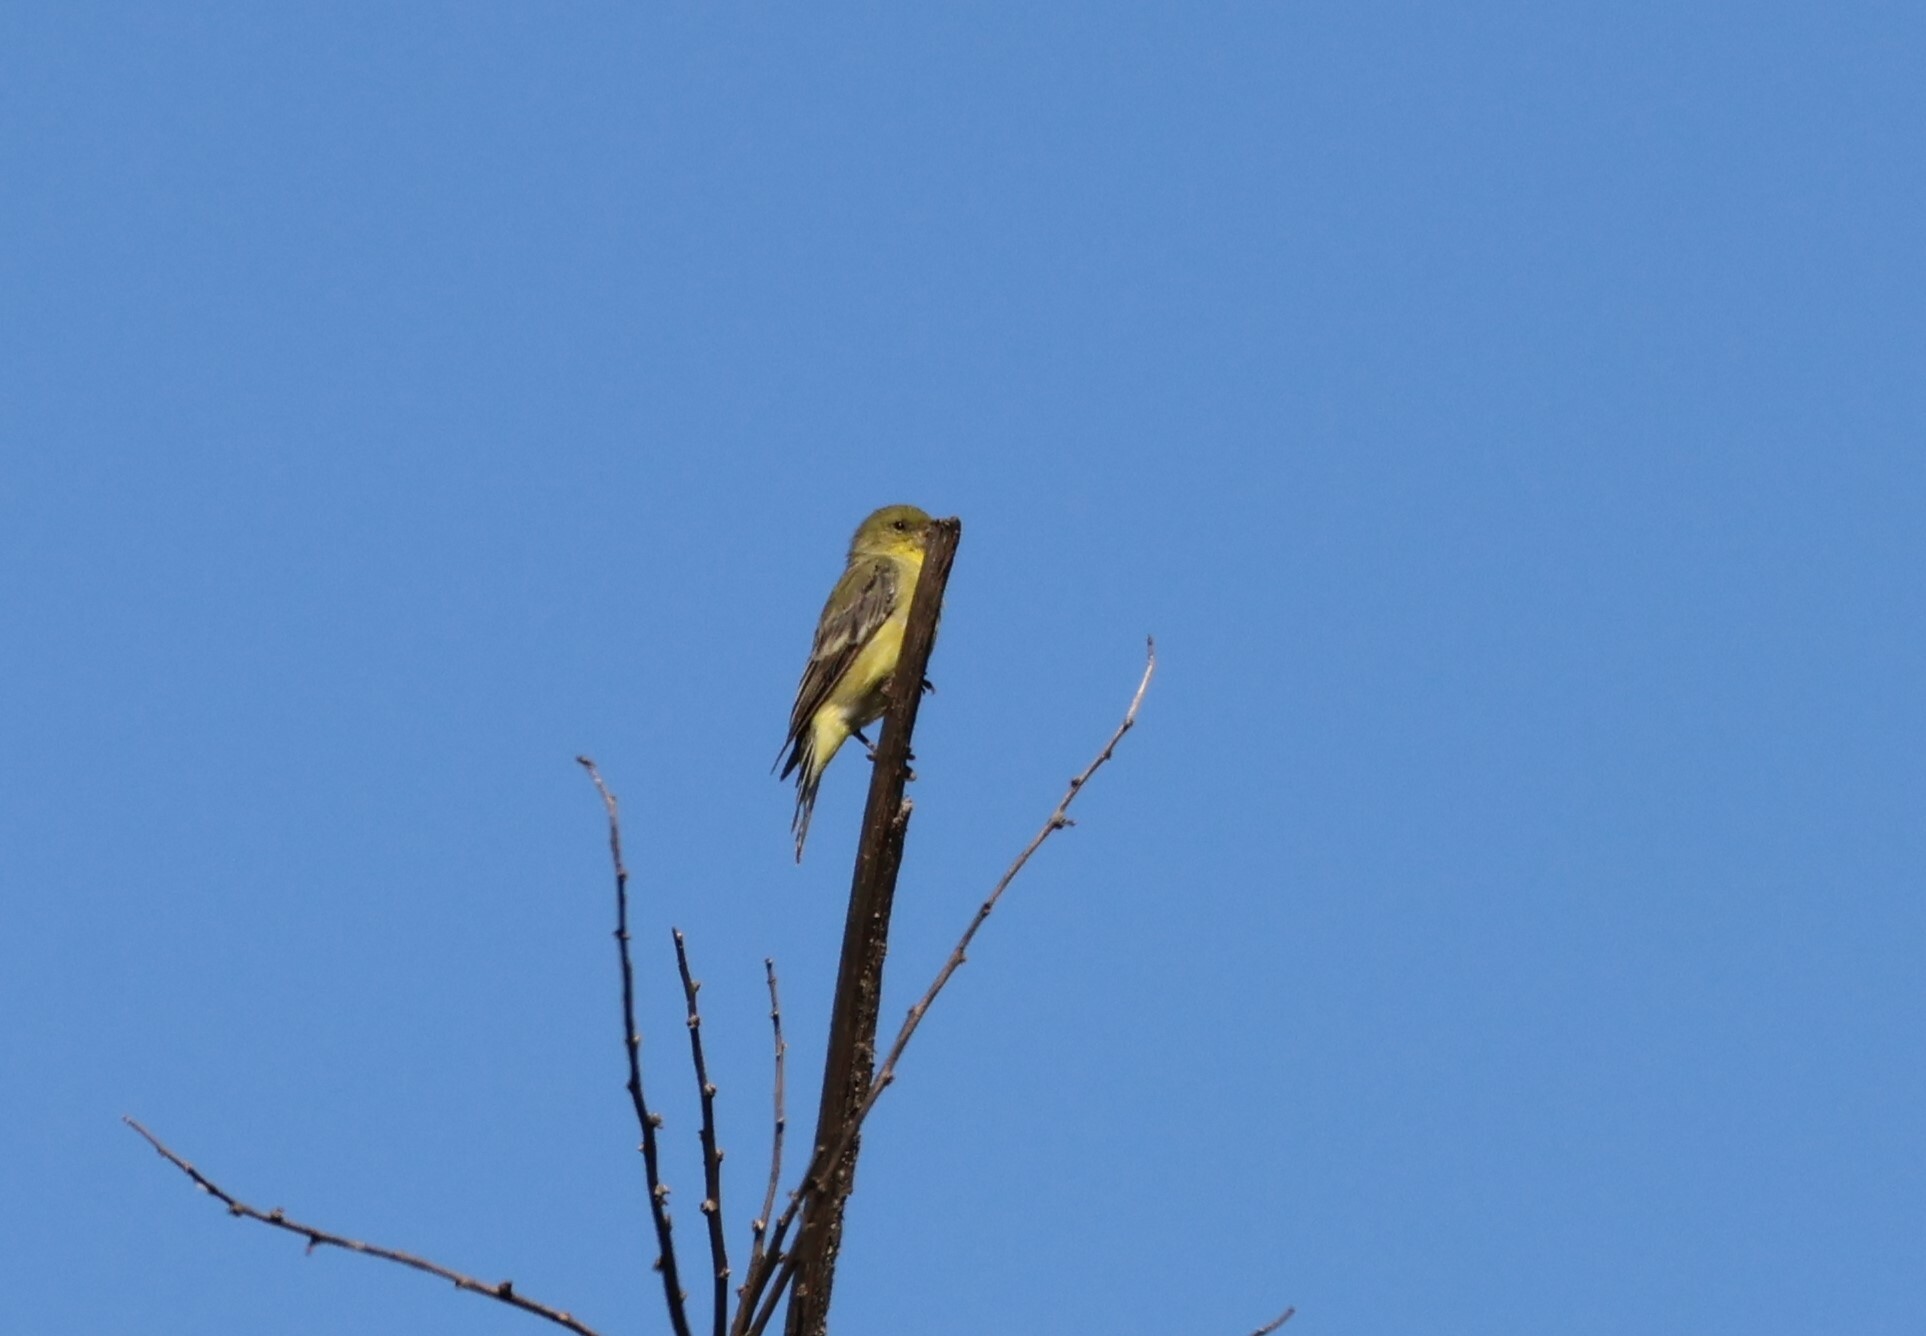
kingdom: Animalia
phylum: Chordata
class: Aves
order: Passeriformes
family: Fringillidae
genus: Spinus
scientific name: Spinus psaltria
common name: Lesser goldfinch
